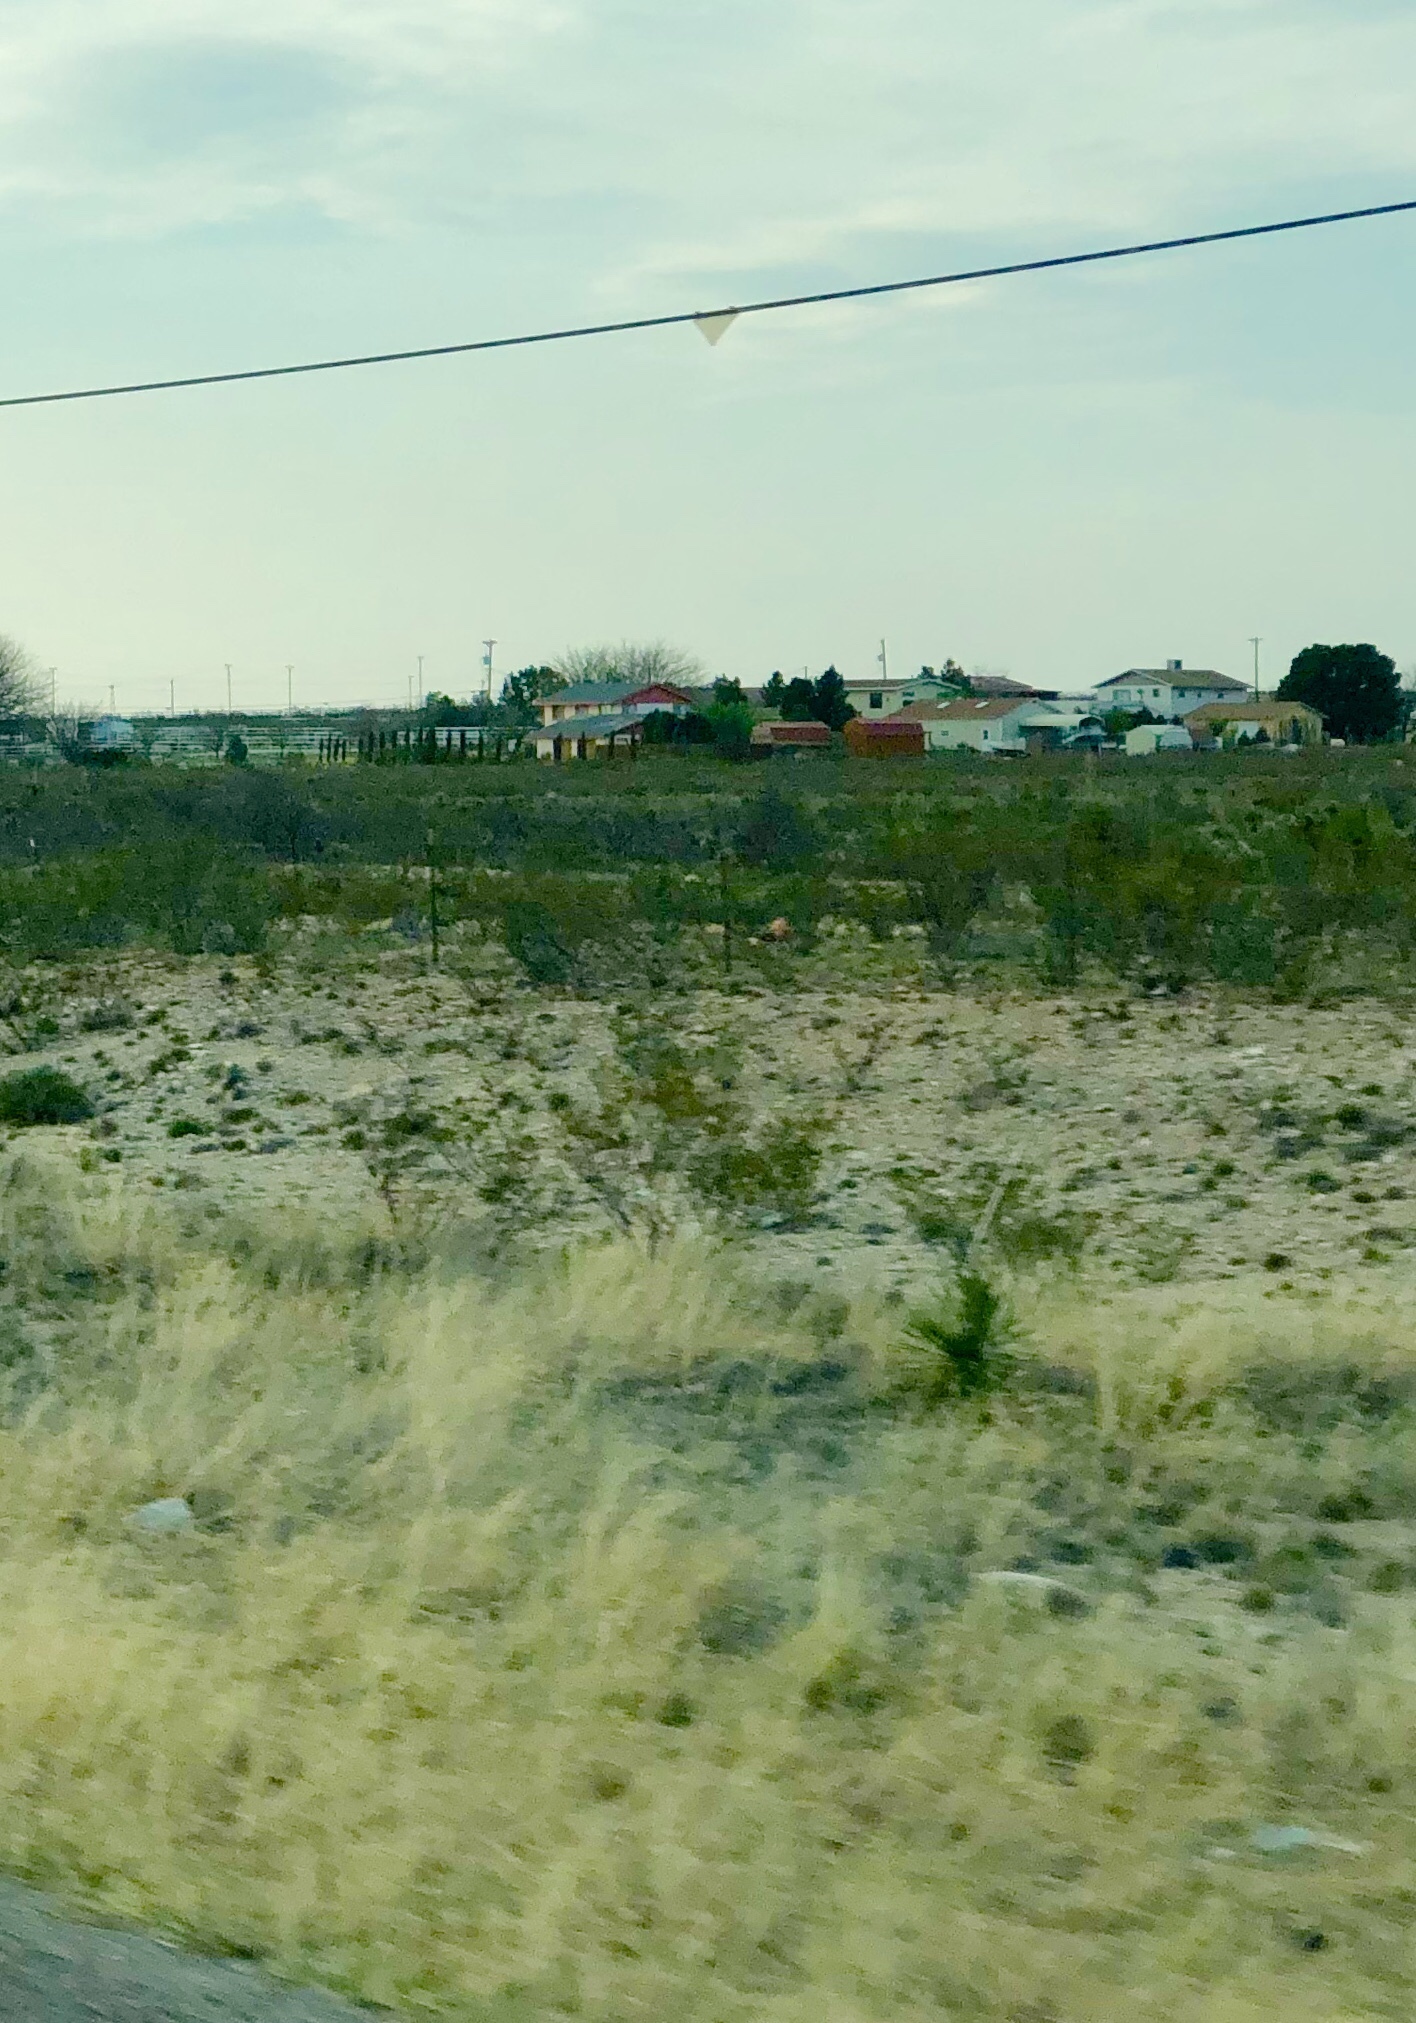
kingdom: Plantae
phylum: Tracheophyta
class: Magnoliopsida
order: Zygophyllales
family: Zygophyllaceae
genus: Larrea
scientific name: Larrea tridentata
